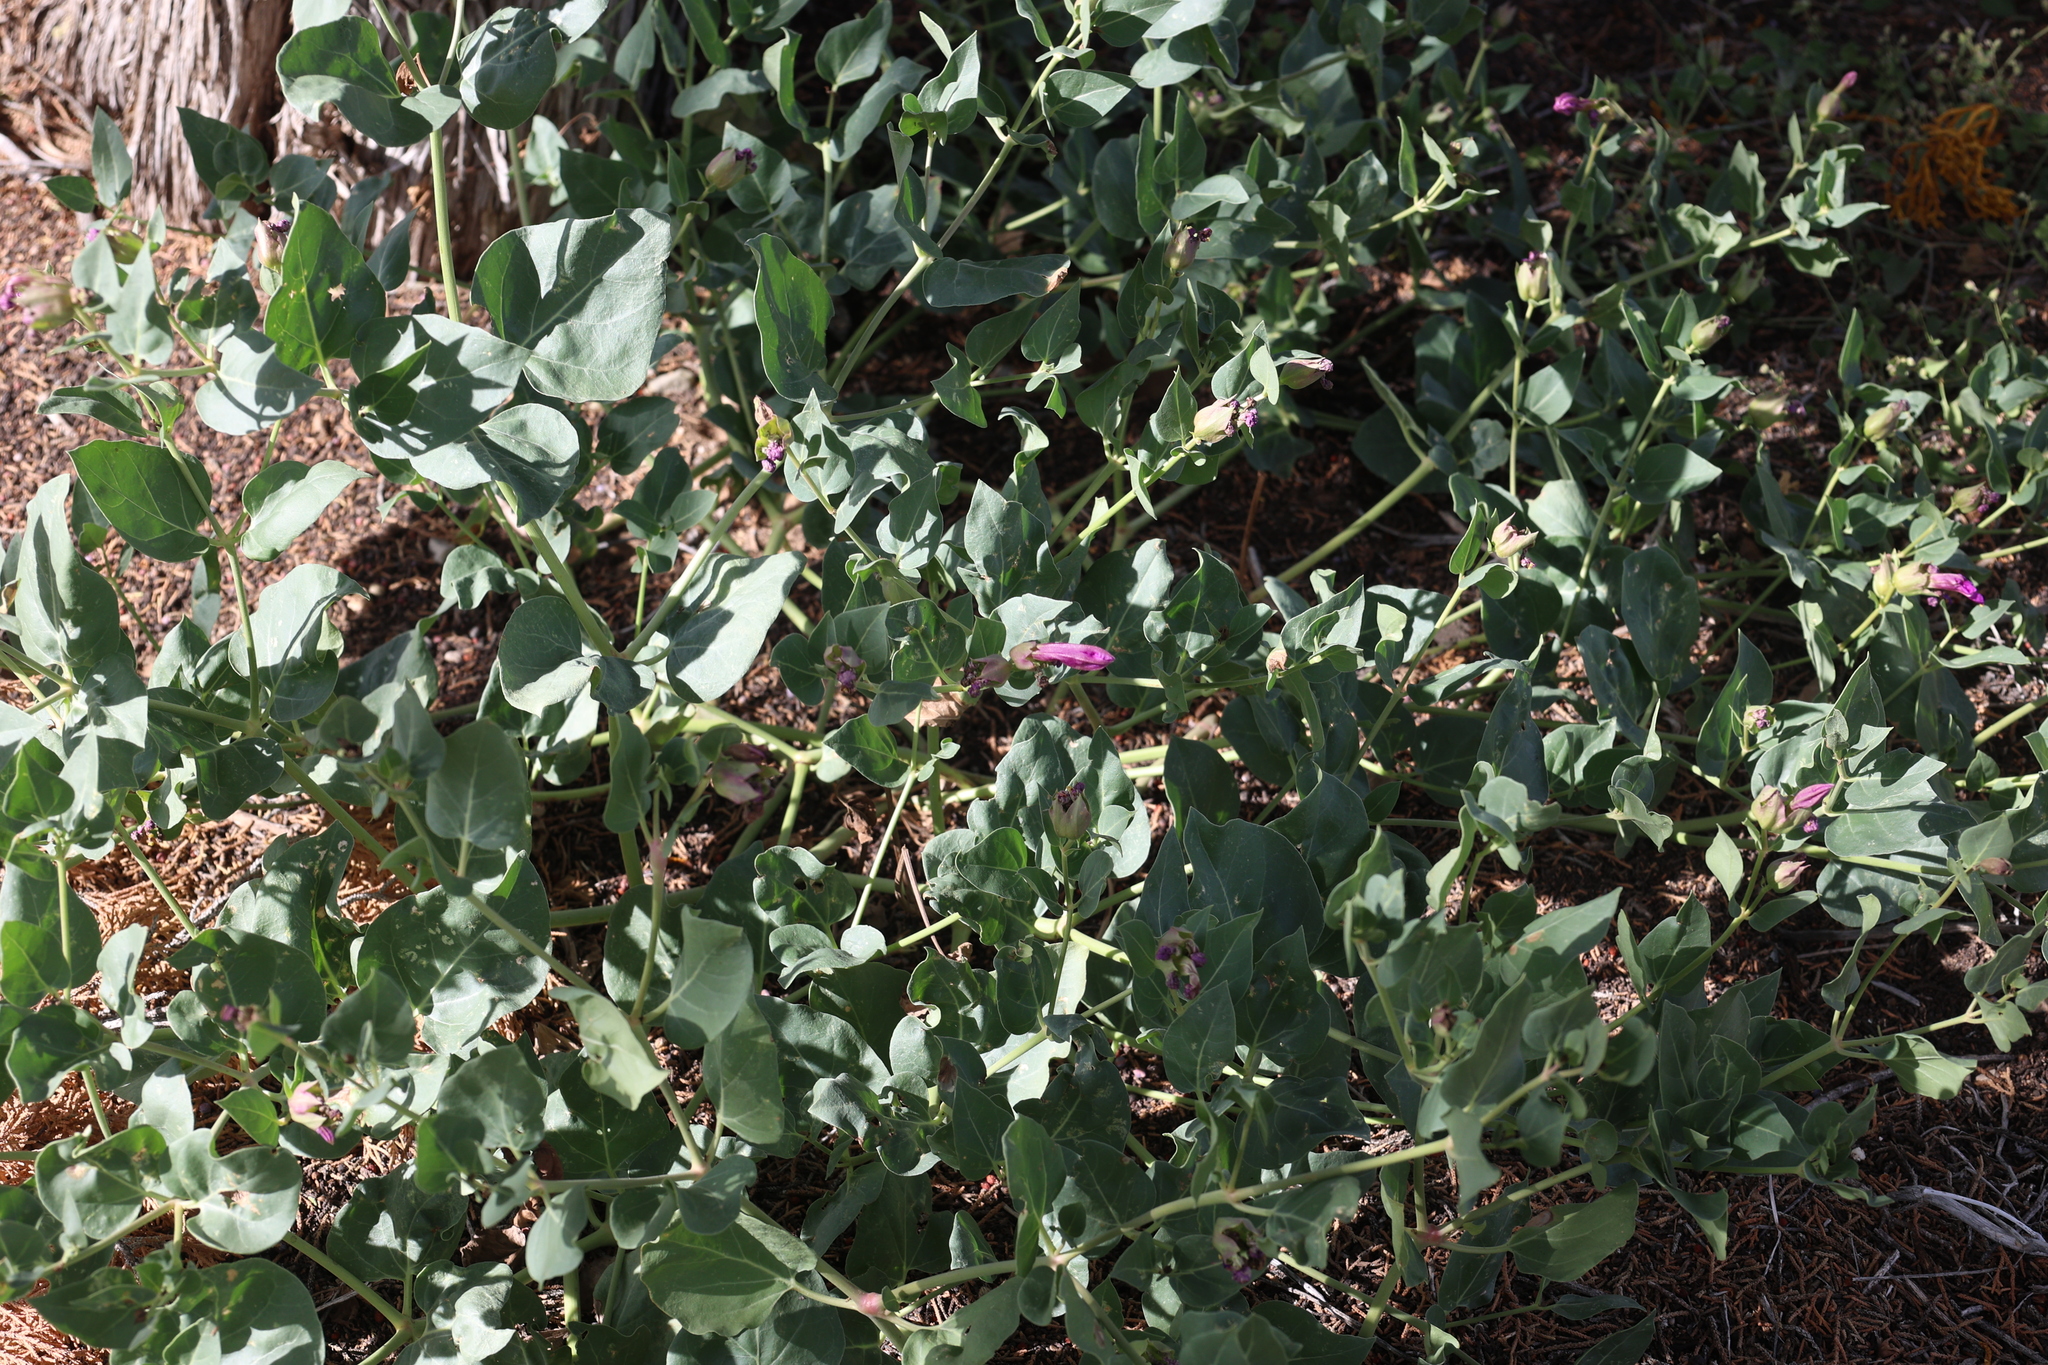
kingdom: Plantae
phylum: Tracheophyta
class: Magnoliopsida
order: Caryophyllales
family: Nyctaginaceae
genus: Mirabilis
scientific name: Mirabilis multiflora
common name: Froebel's four-o'clock
